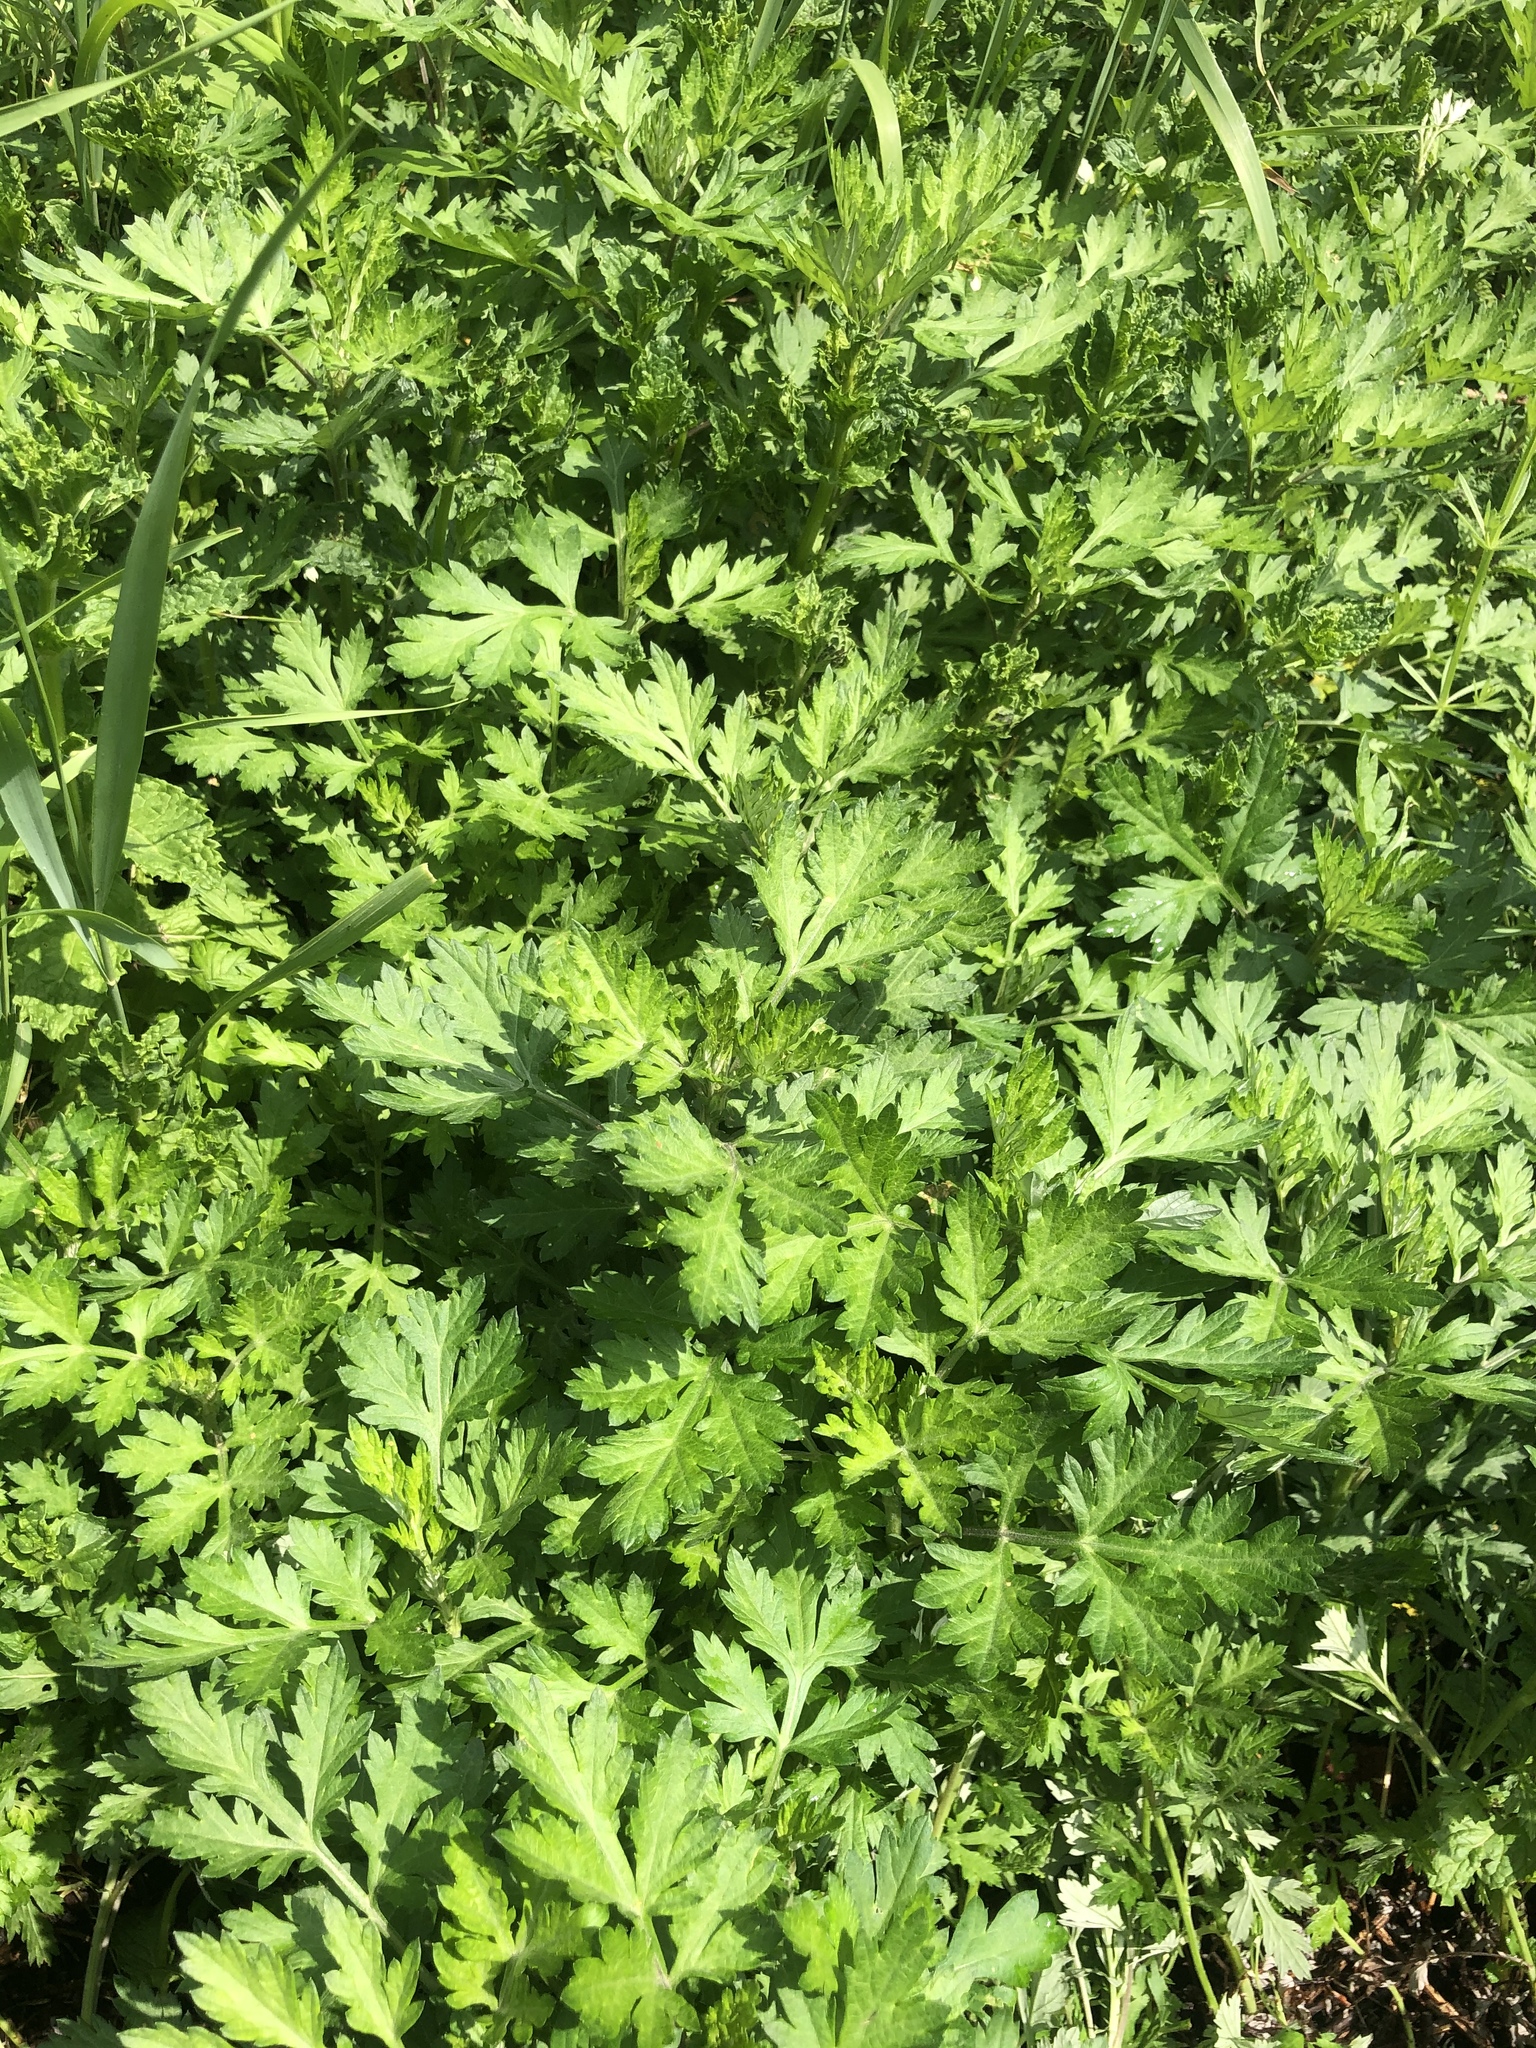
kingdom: Plantae
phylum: Tracheophyta
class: Magnoliopsida
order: Asterales
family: Asteraceae
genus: Artemisia
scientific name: Artemisia vulgaris
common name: Mugwort
